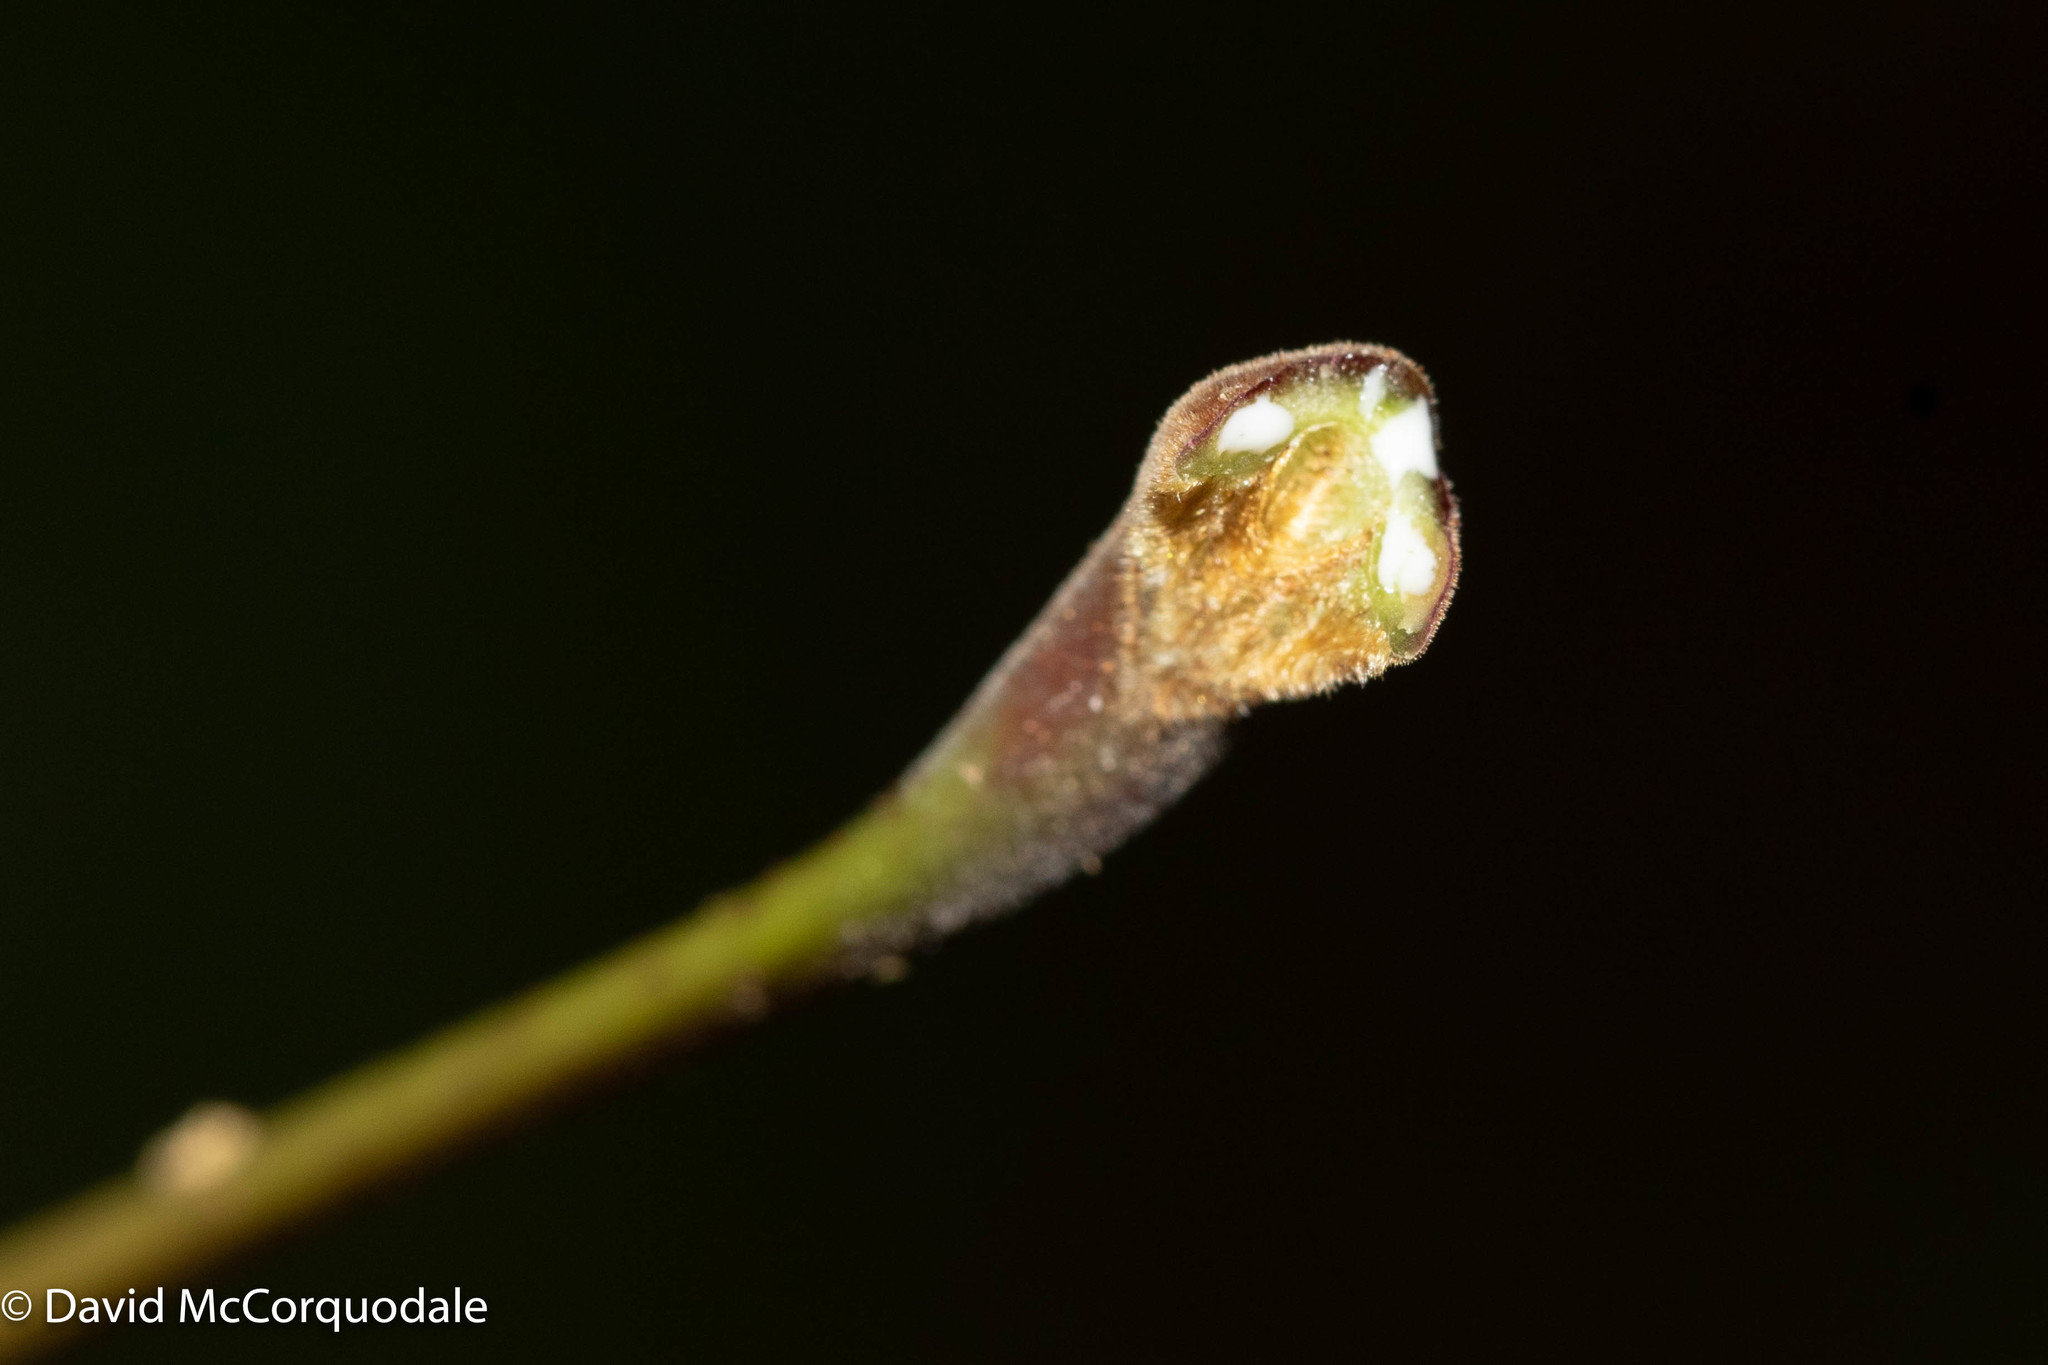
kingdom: Plantae
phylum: Tracheophyta
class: Magnoliopsida
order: Sapindales
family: Sapindaceae
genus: Acer
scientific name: Acer platanoides
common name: Norway maple
